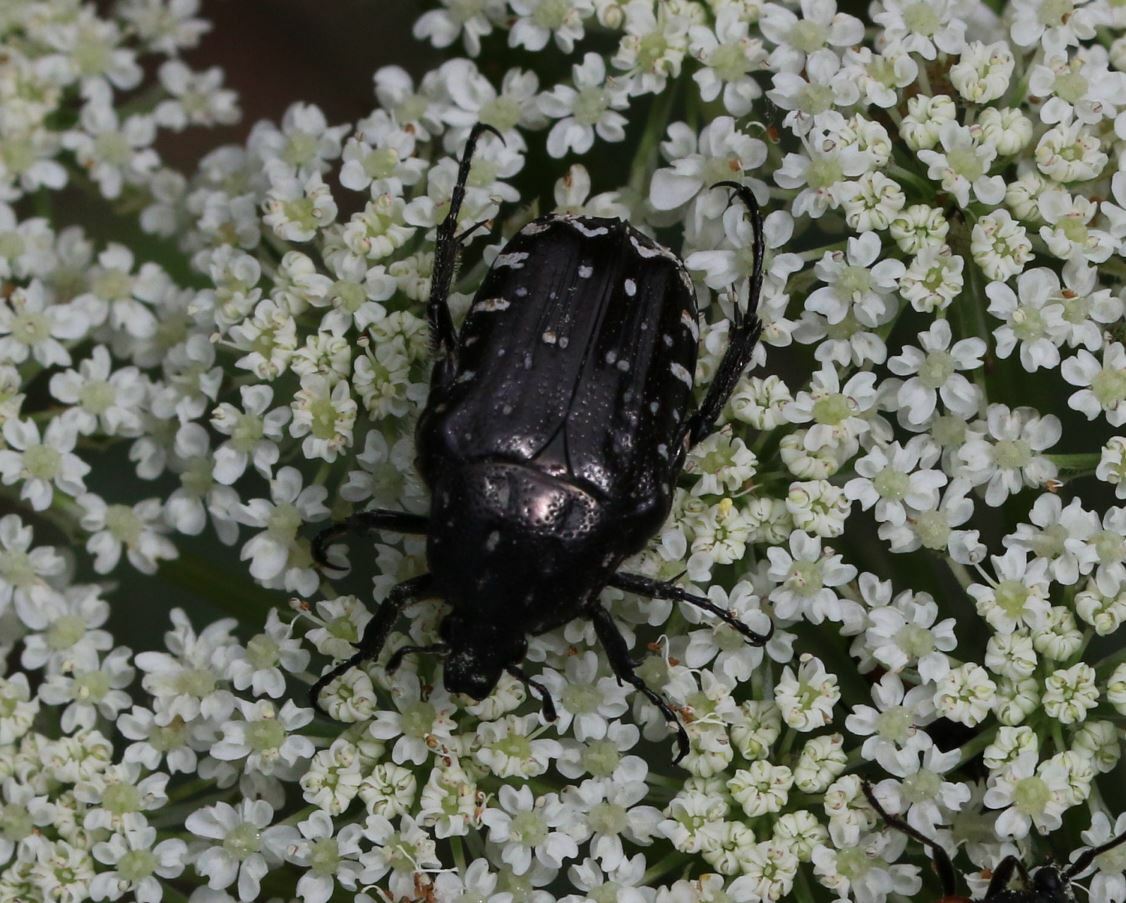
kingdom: Animalia
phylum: Arthropoda
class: Insecta
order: Coleoptera
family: Scarabaeidae
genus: Oxythyrea
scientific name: Oxythyrea funesta
